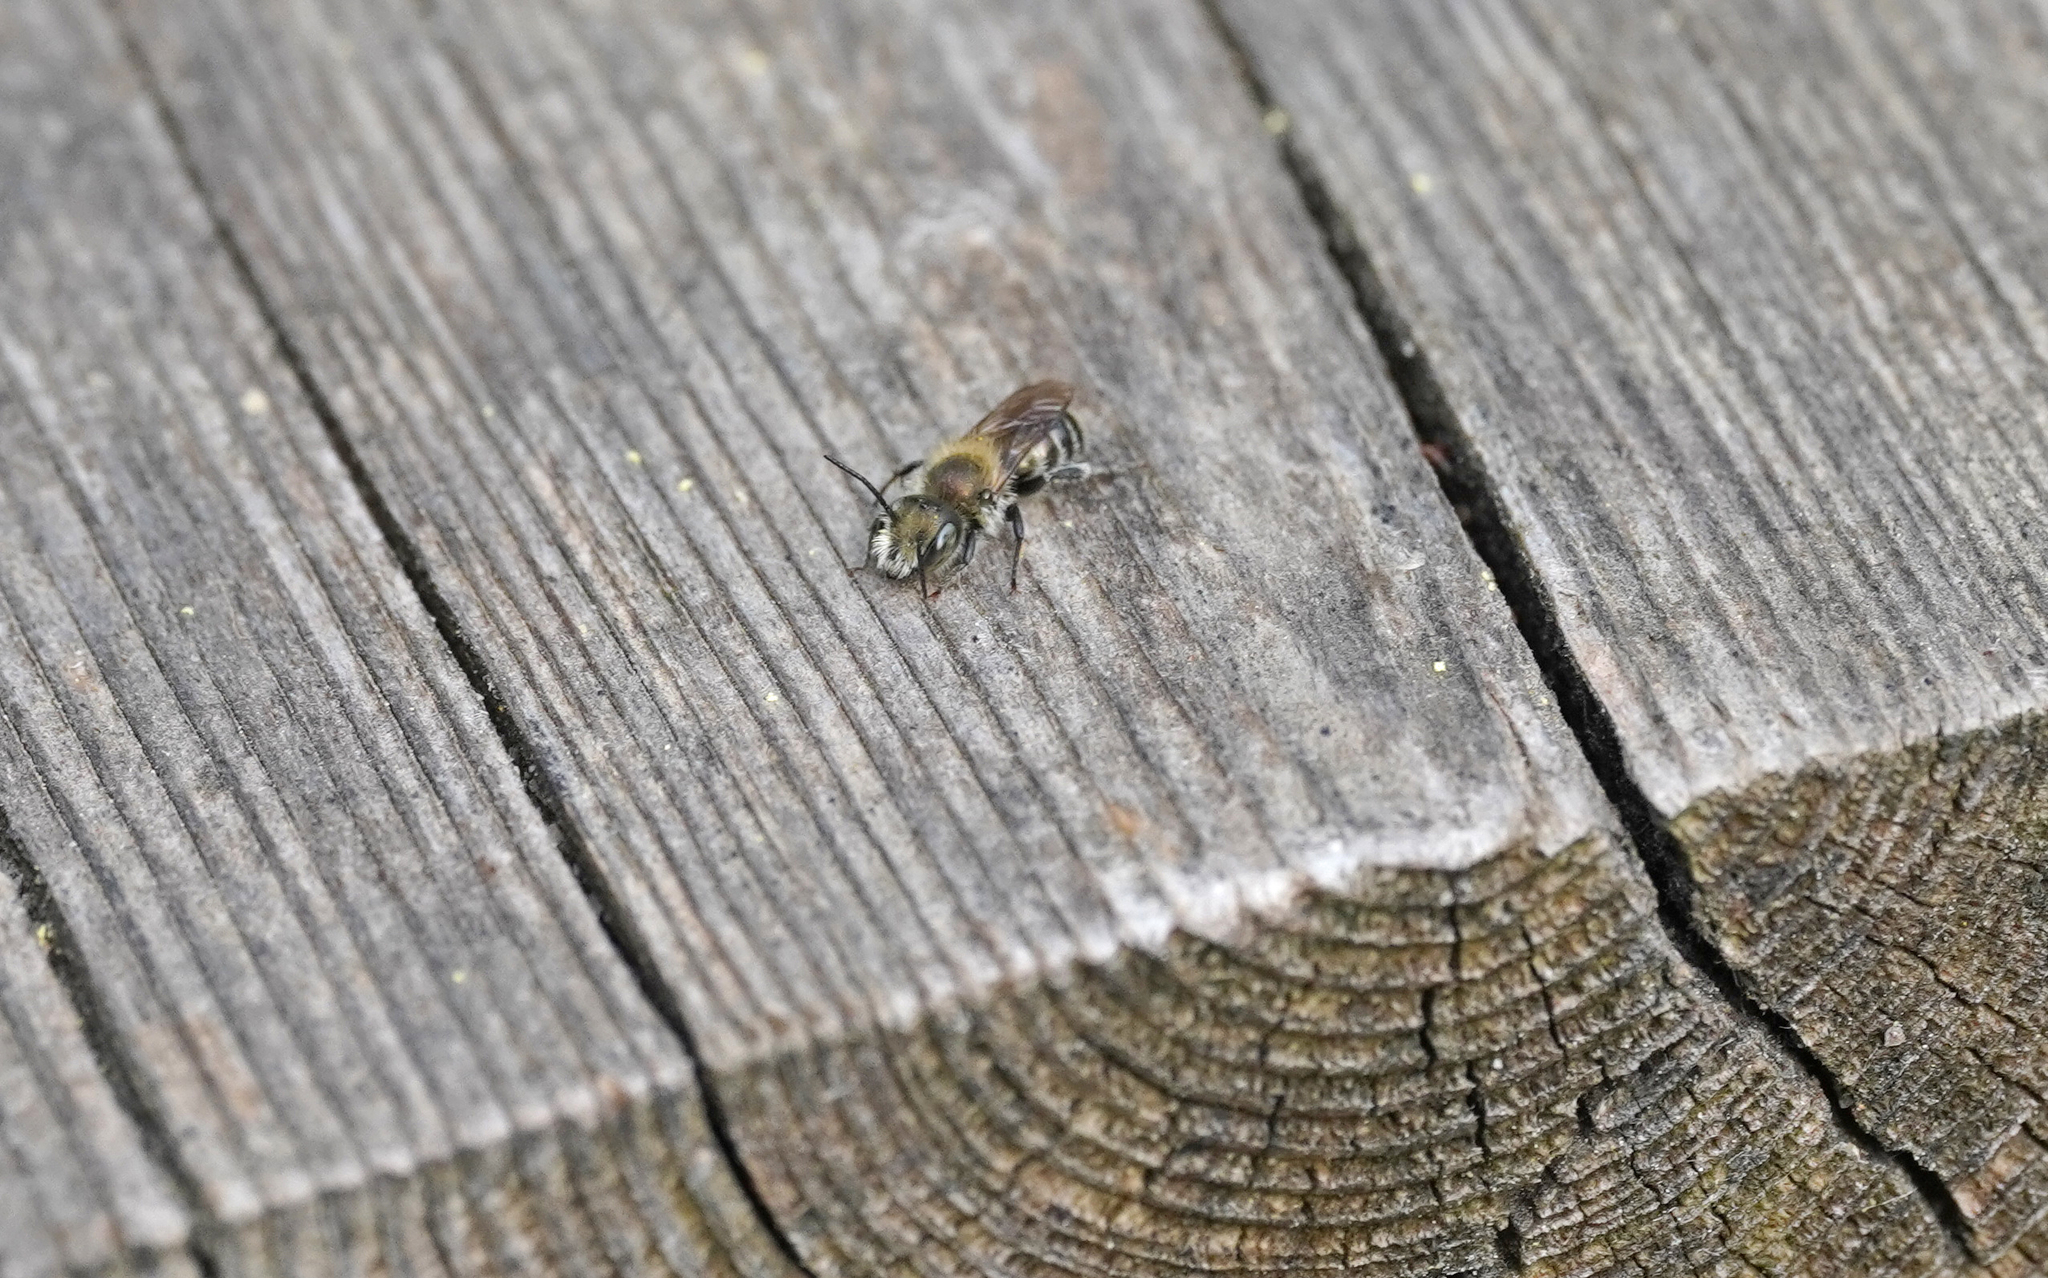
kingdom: Animalia
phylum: Arthropoda
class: Insecta
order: Hymenoptera
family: Megachilidae
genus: Osmia
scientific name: Osmia caerulescens
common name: Blue mason bee
